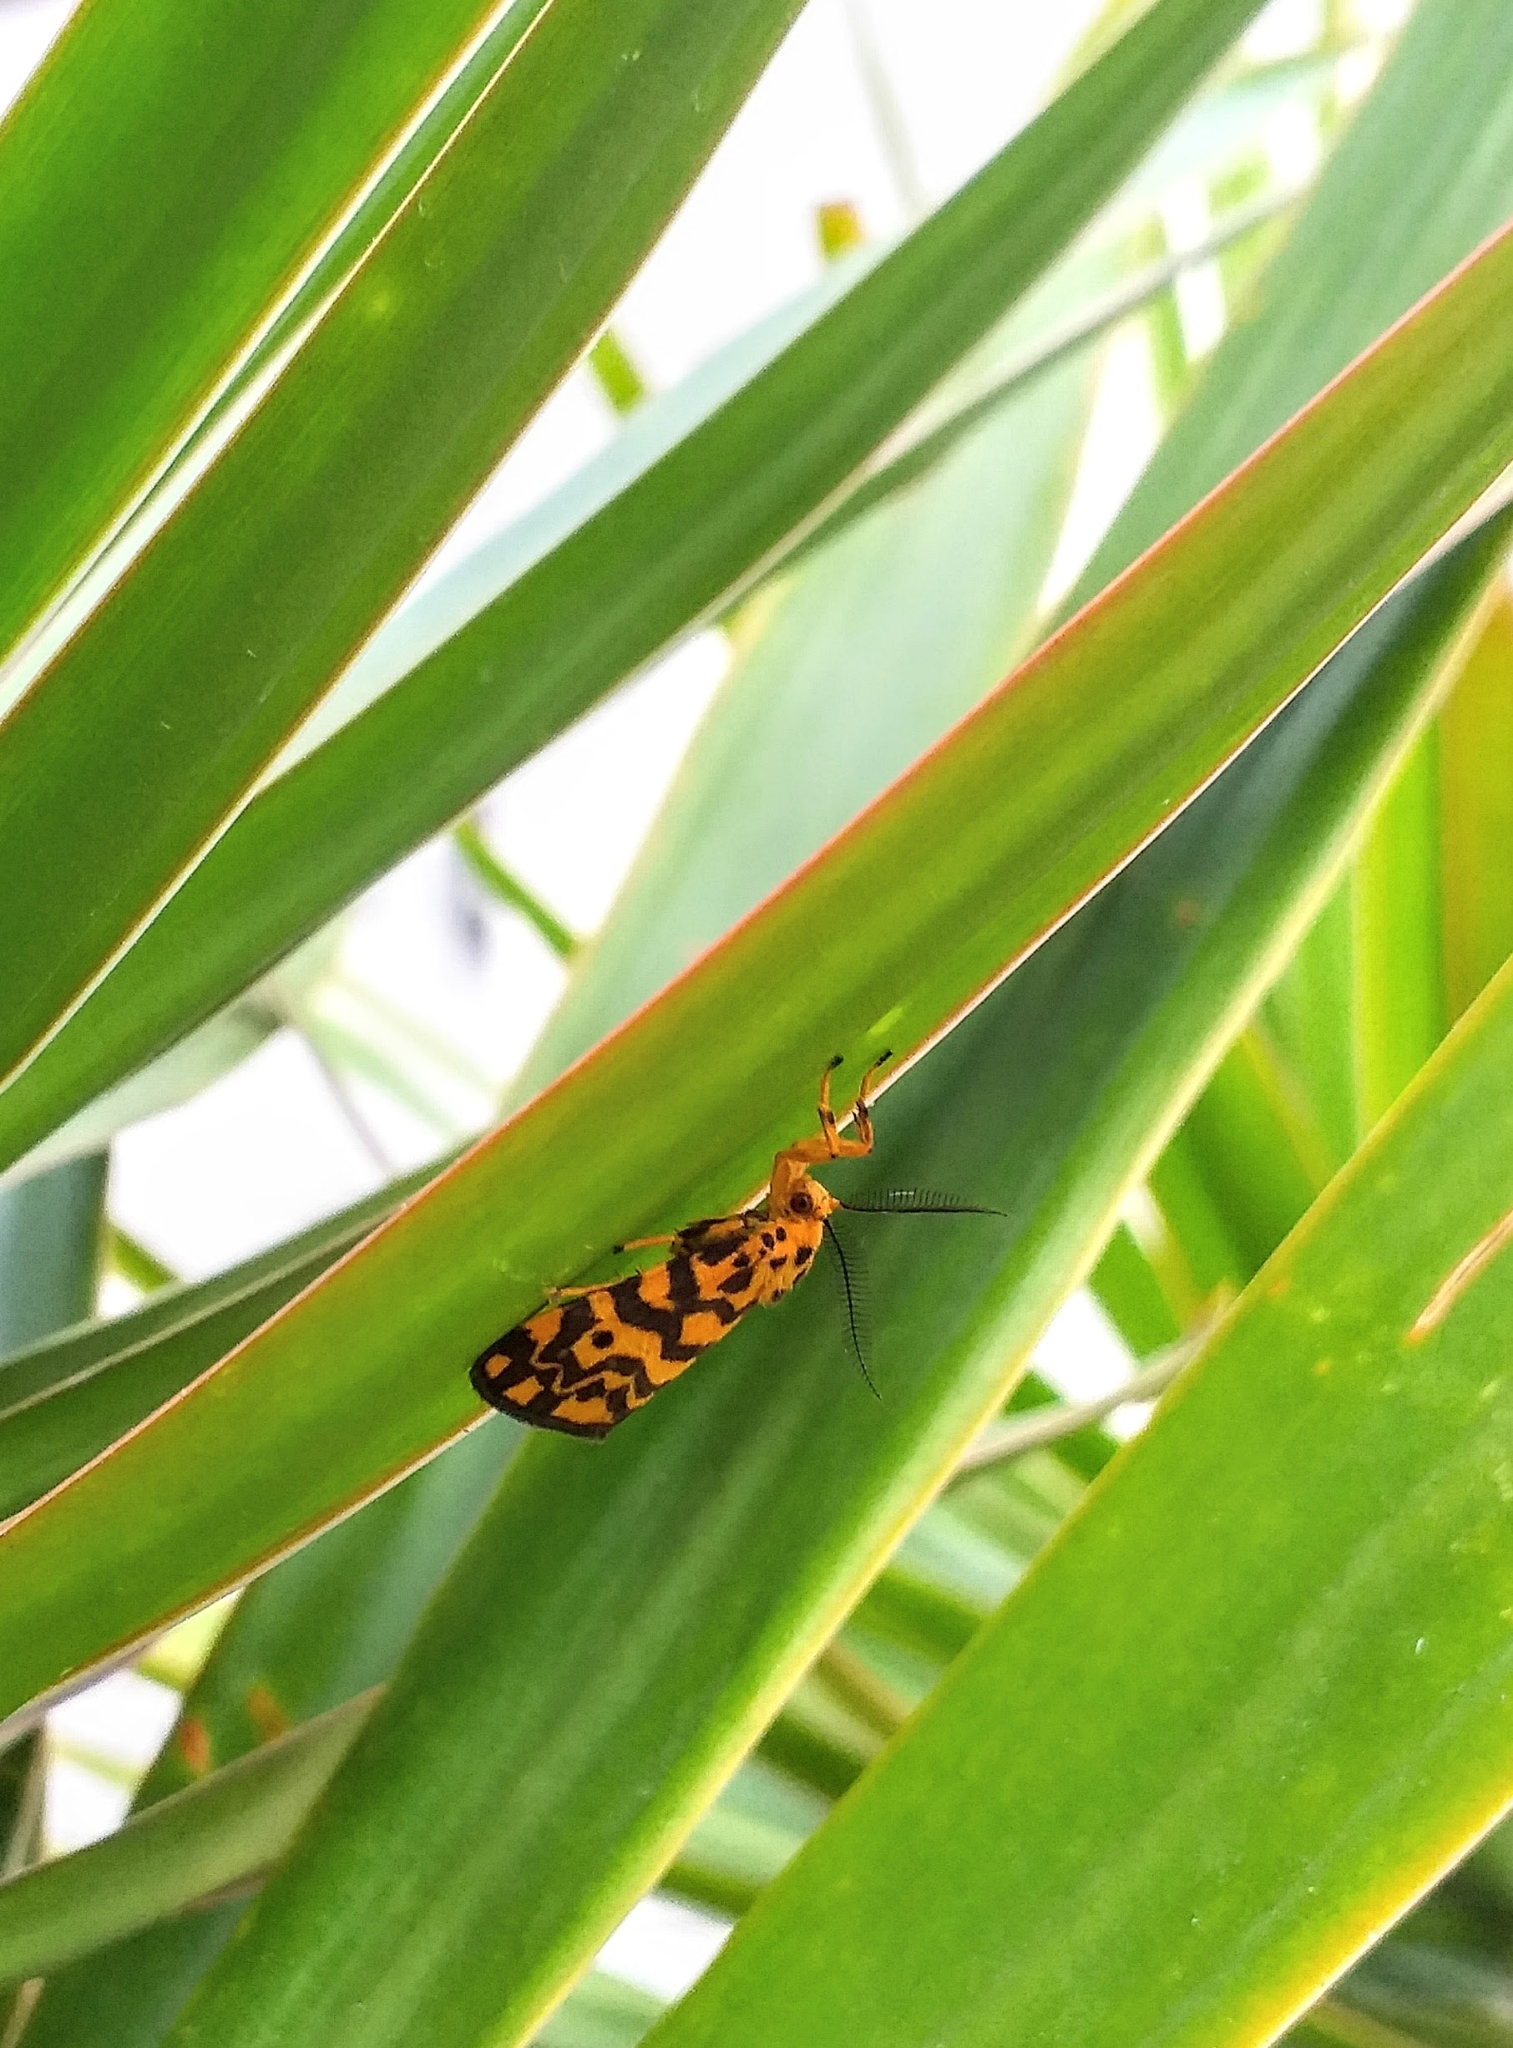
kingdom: Animalia
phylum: Arthropoda
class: Insecta
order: Lepidoptera
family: Erebidae
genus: Nepita
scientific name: Nepita conferta
